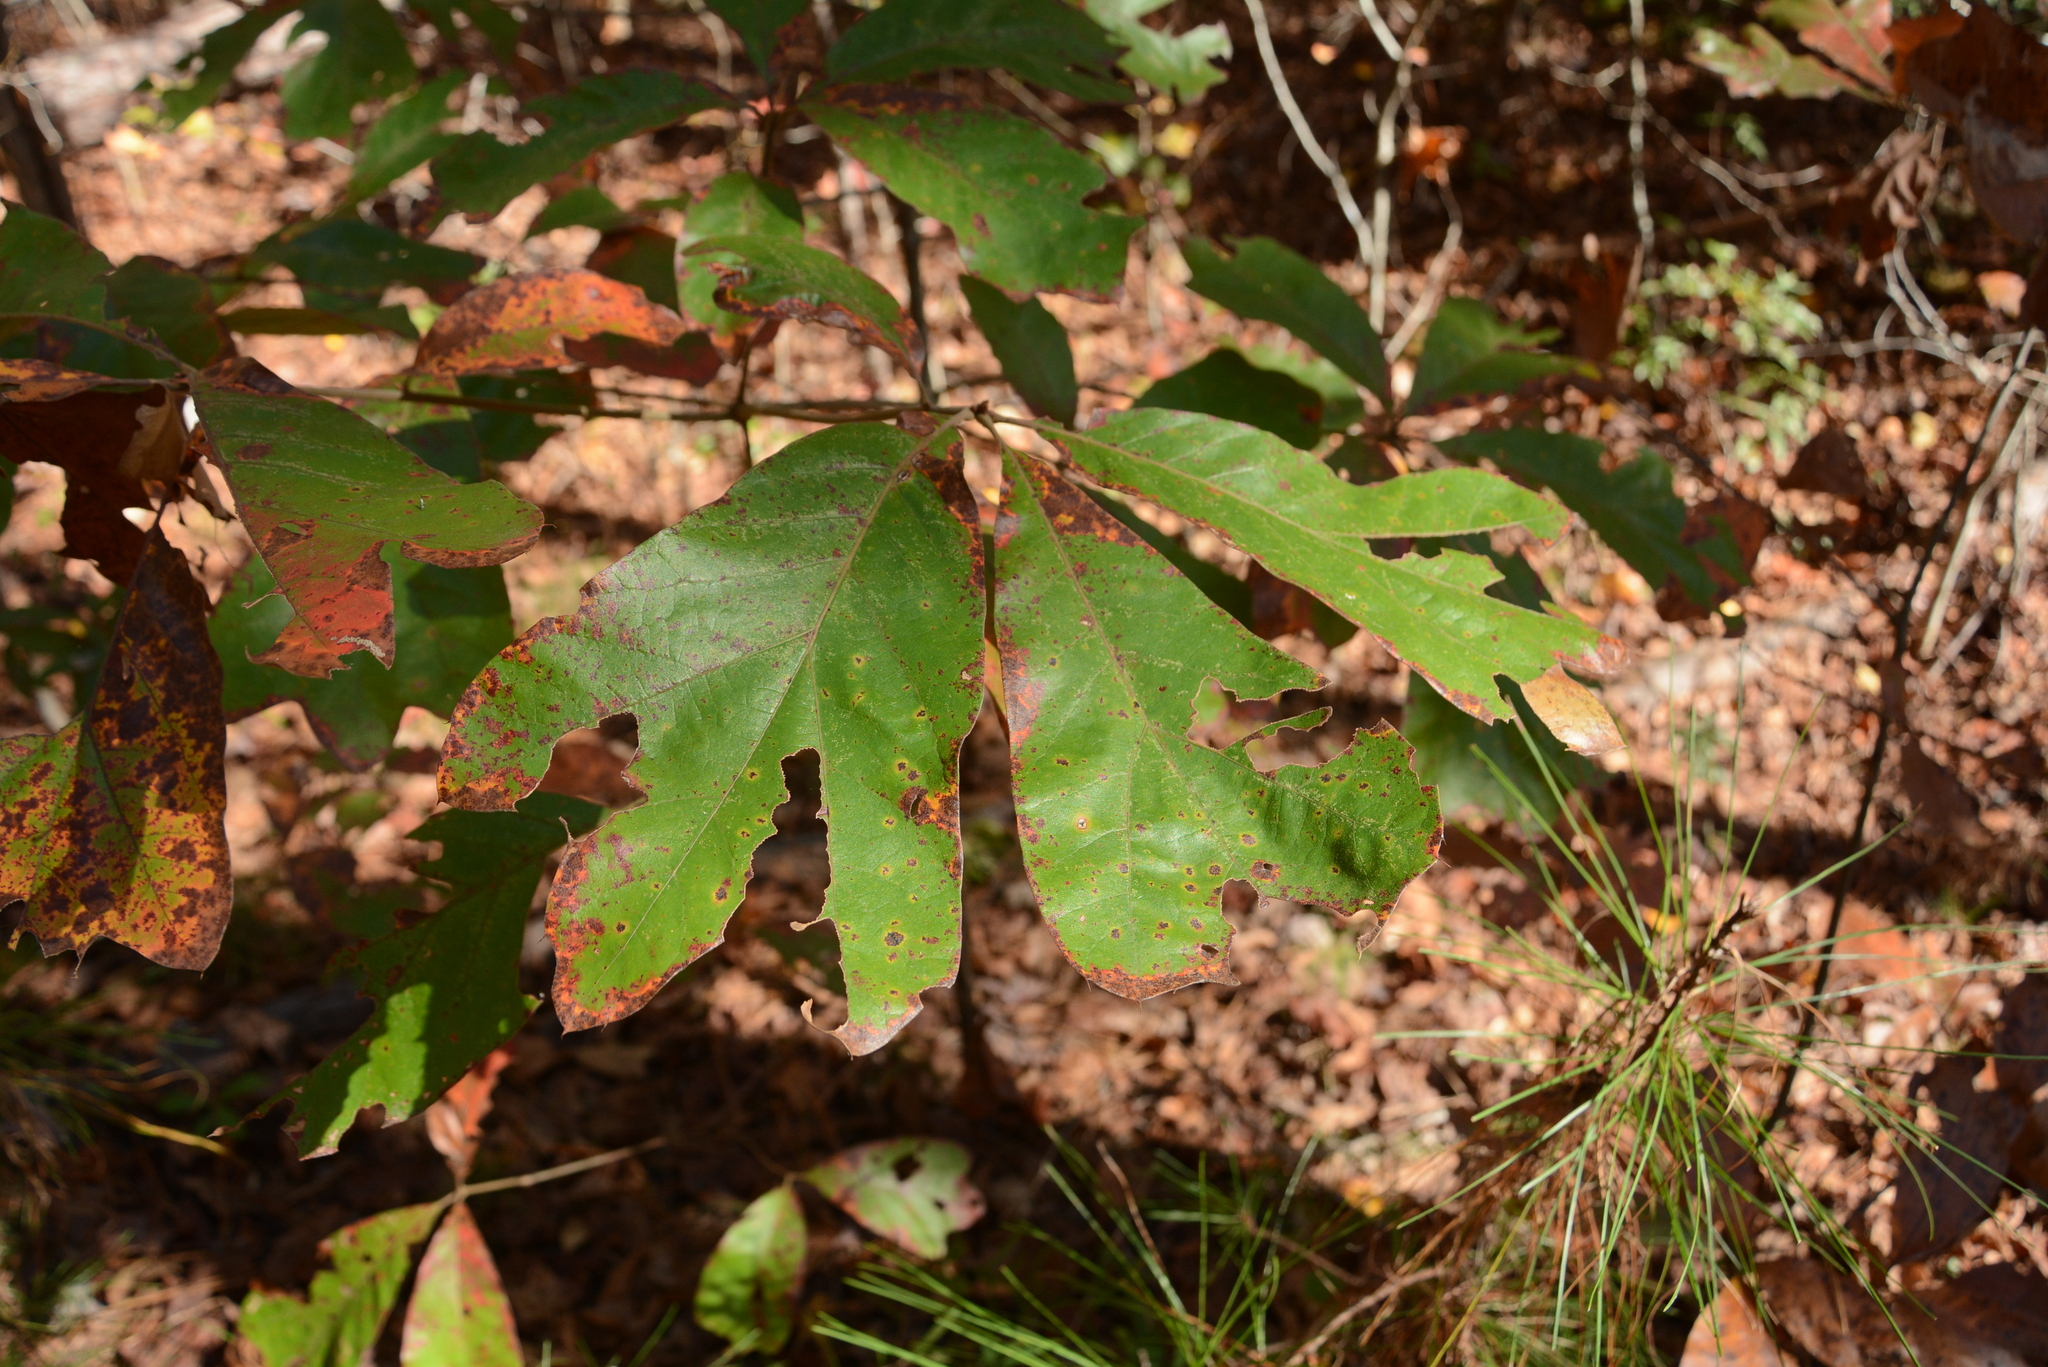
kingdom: Plantae
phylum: Tracheophyta
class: Magnoliopsida
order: Fagales
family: Fagaceae
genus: Quercus
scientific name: Quercus falcata
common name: Southern red oak
